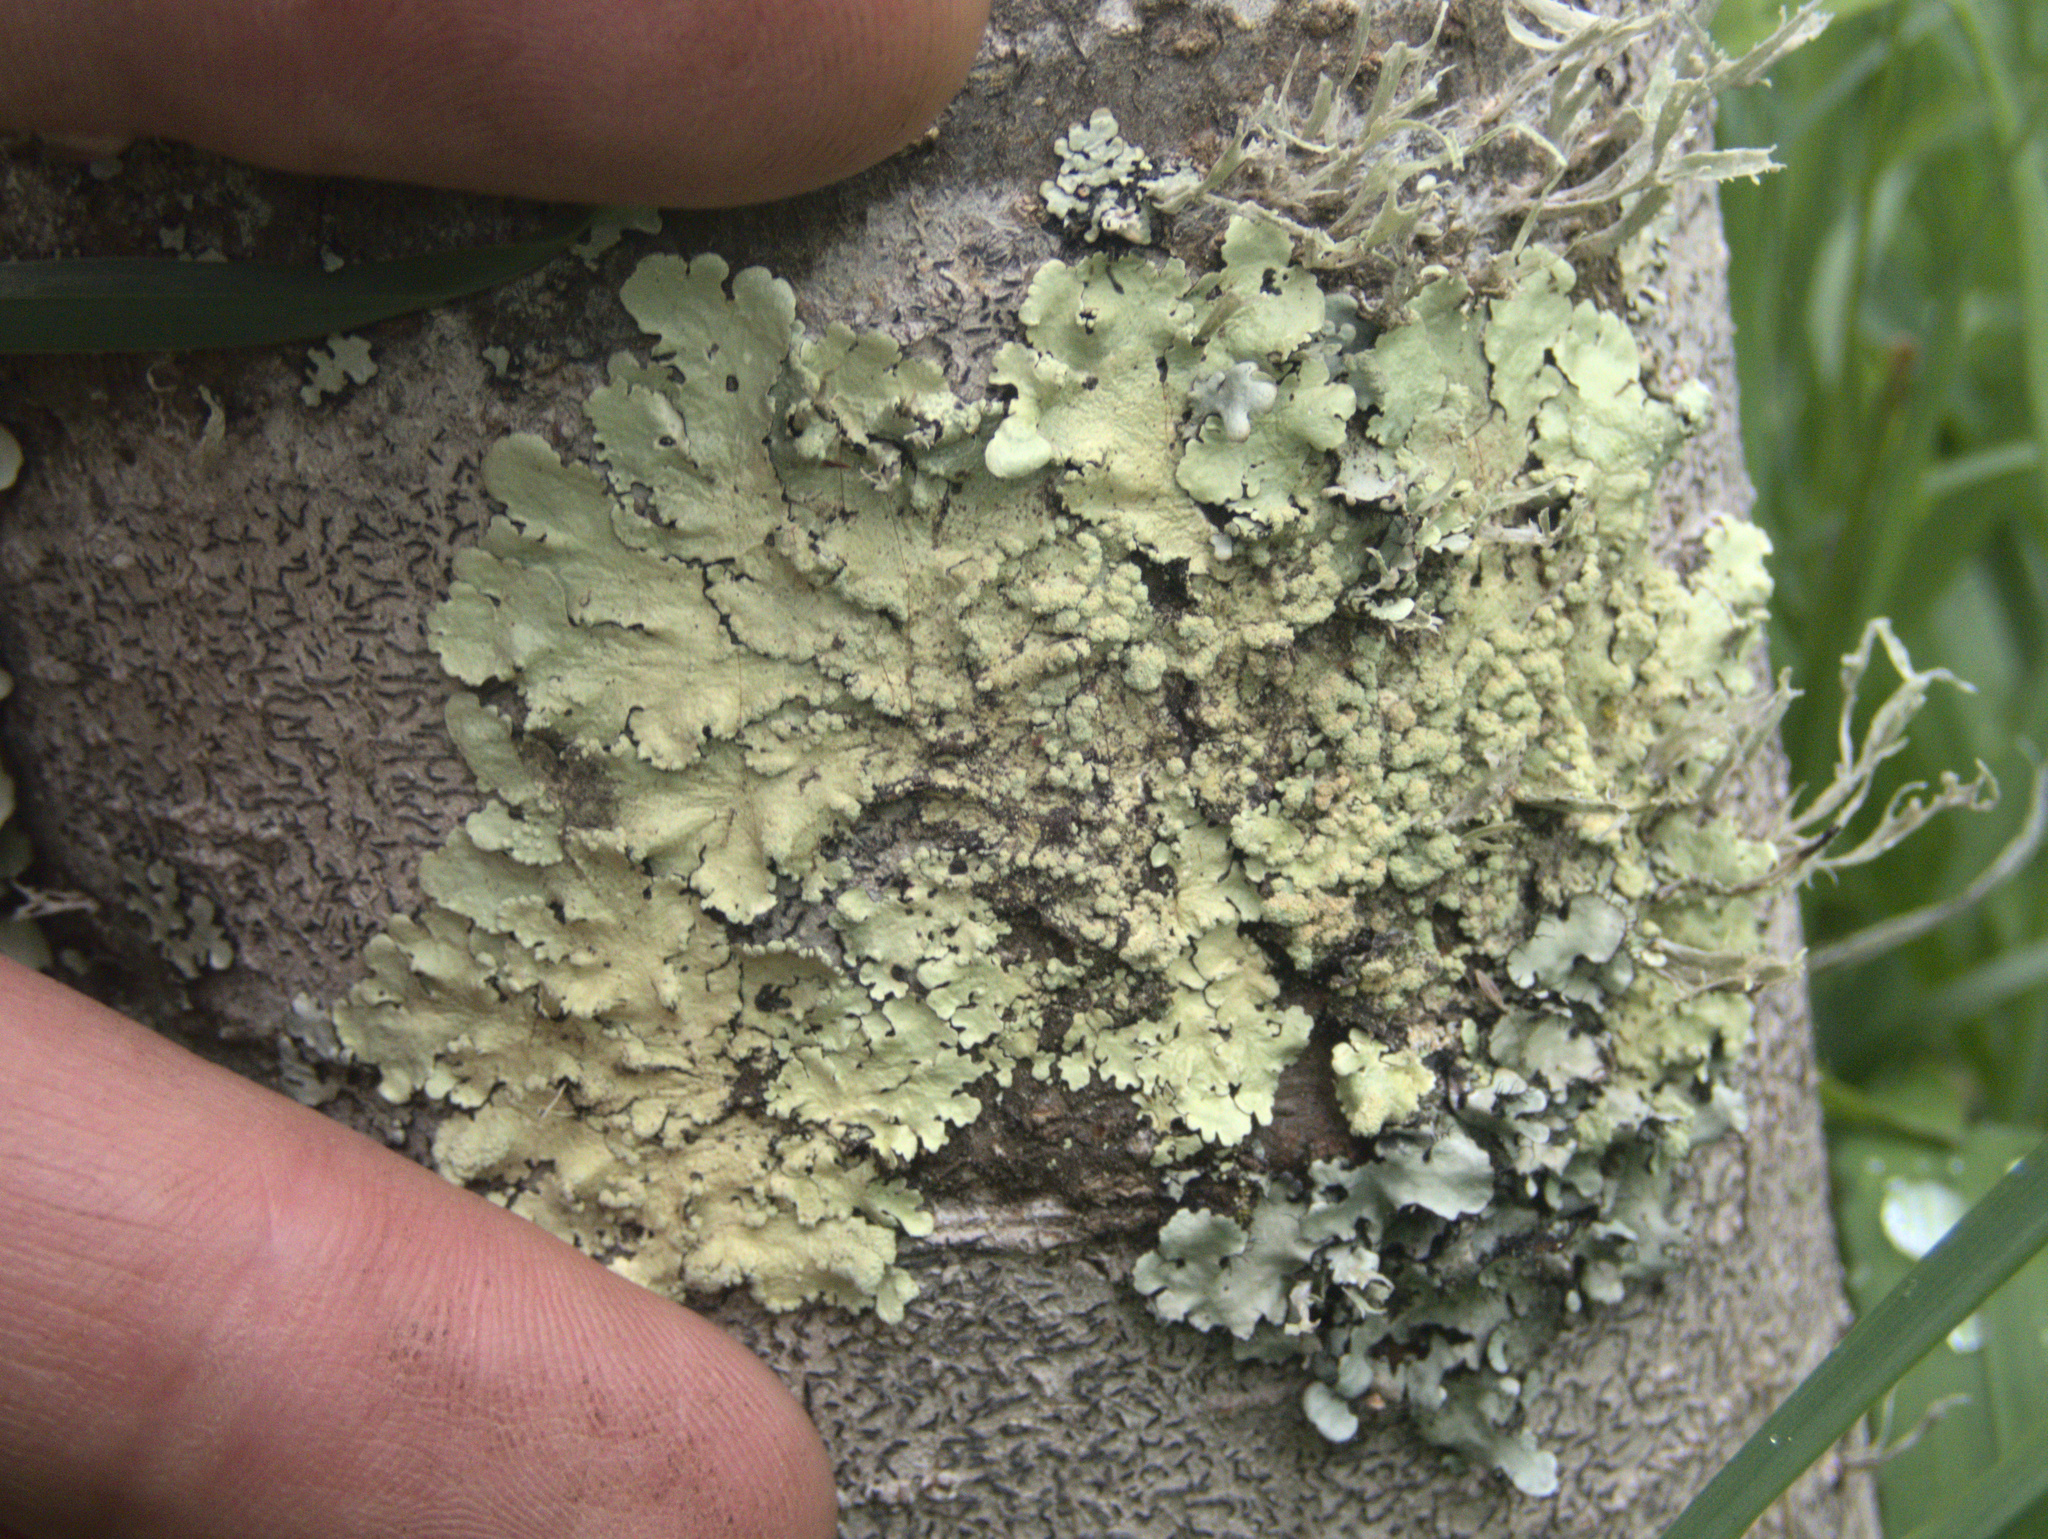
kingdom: Fungi
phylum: Ascomycota
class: Lecanoromycetes
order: Lecanorales
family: Parmeliaceae
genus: Flavoparmelia
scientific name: Flavoparmelia soredians
